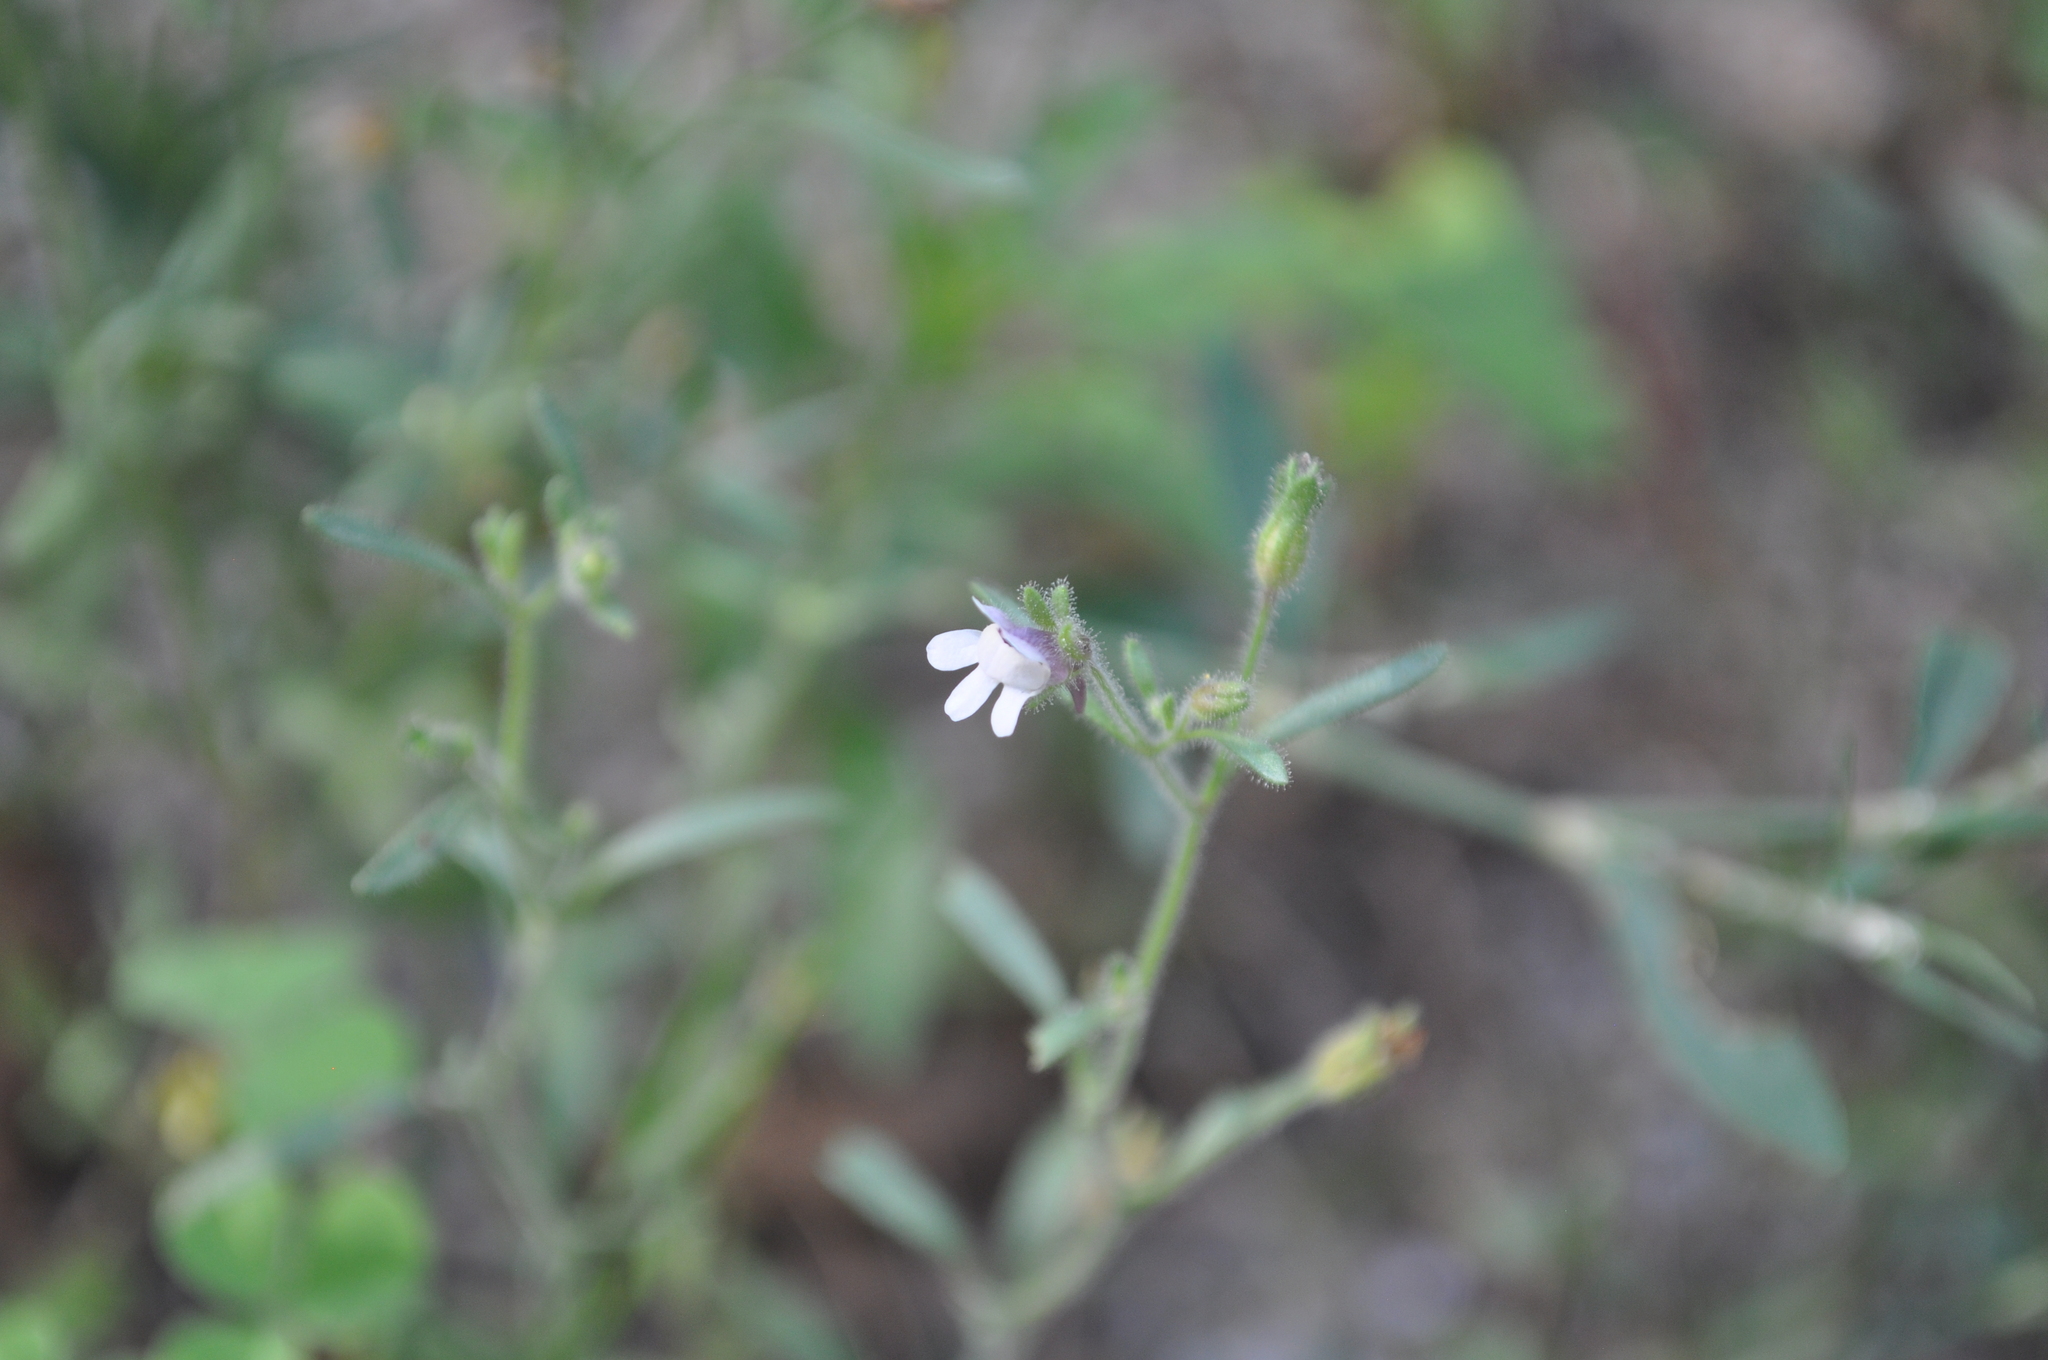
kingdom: Plantae
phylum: Tracheophyta
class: Magnoliopsida
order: Lamiales
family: Plantaginaceae
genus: Chaenorhinum
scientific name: Chaenorhinum minus
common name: Dwarf snapdragon
